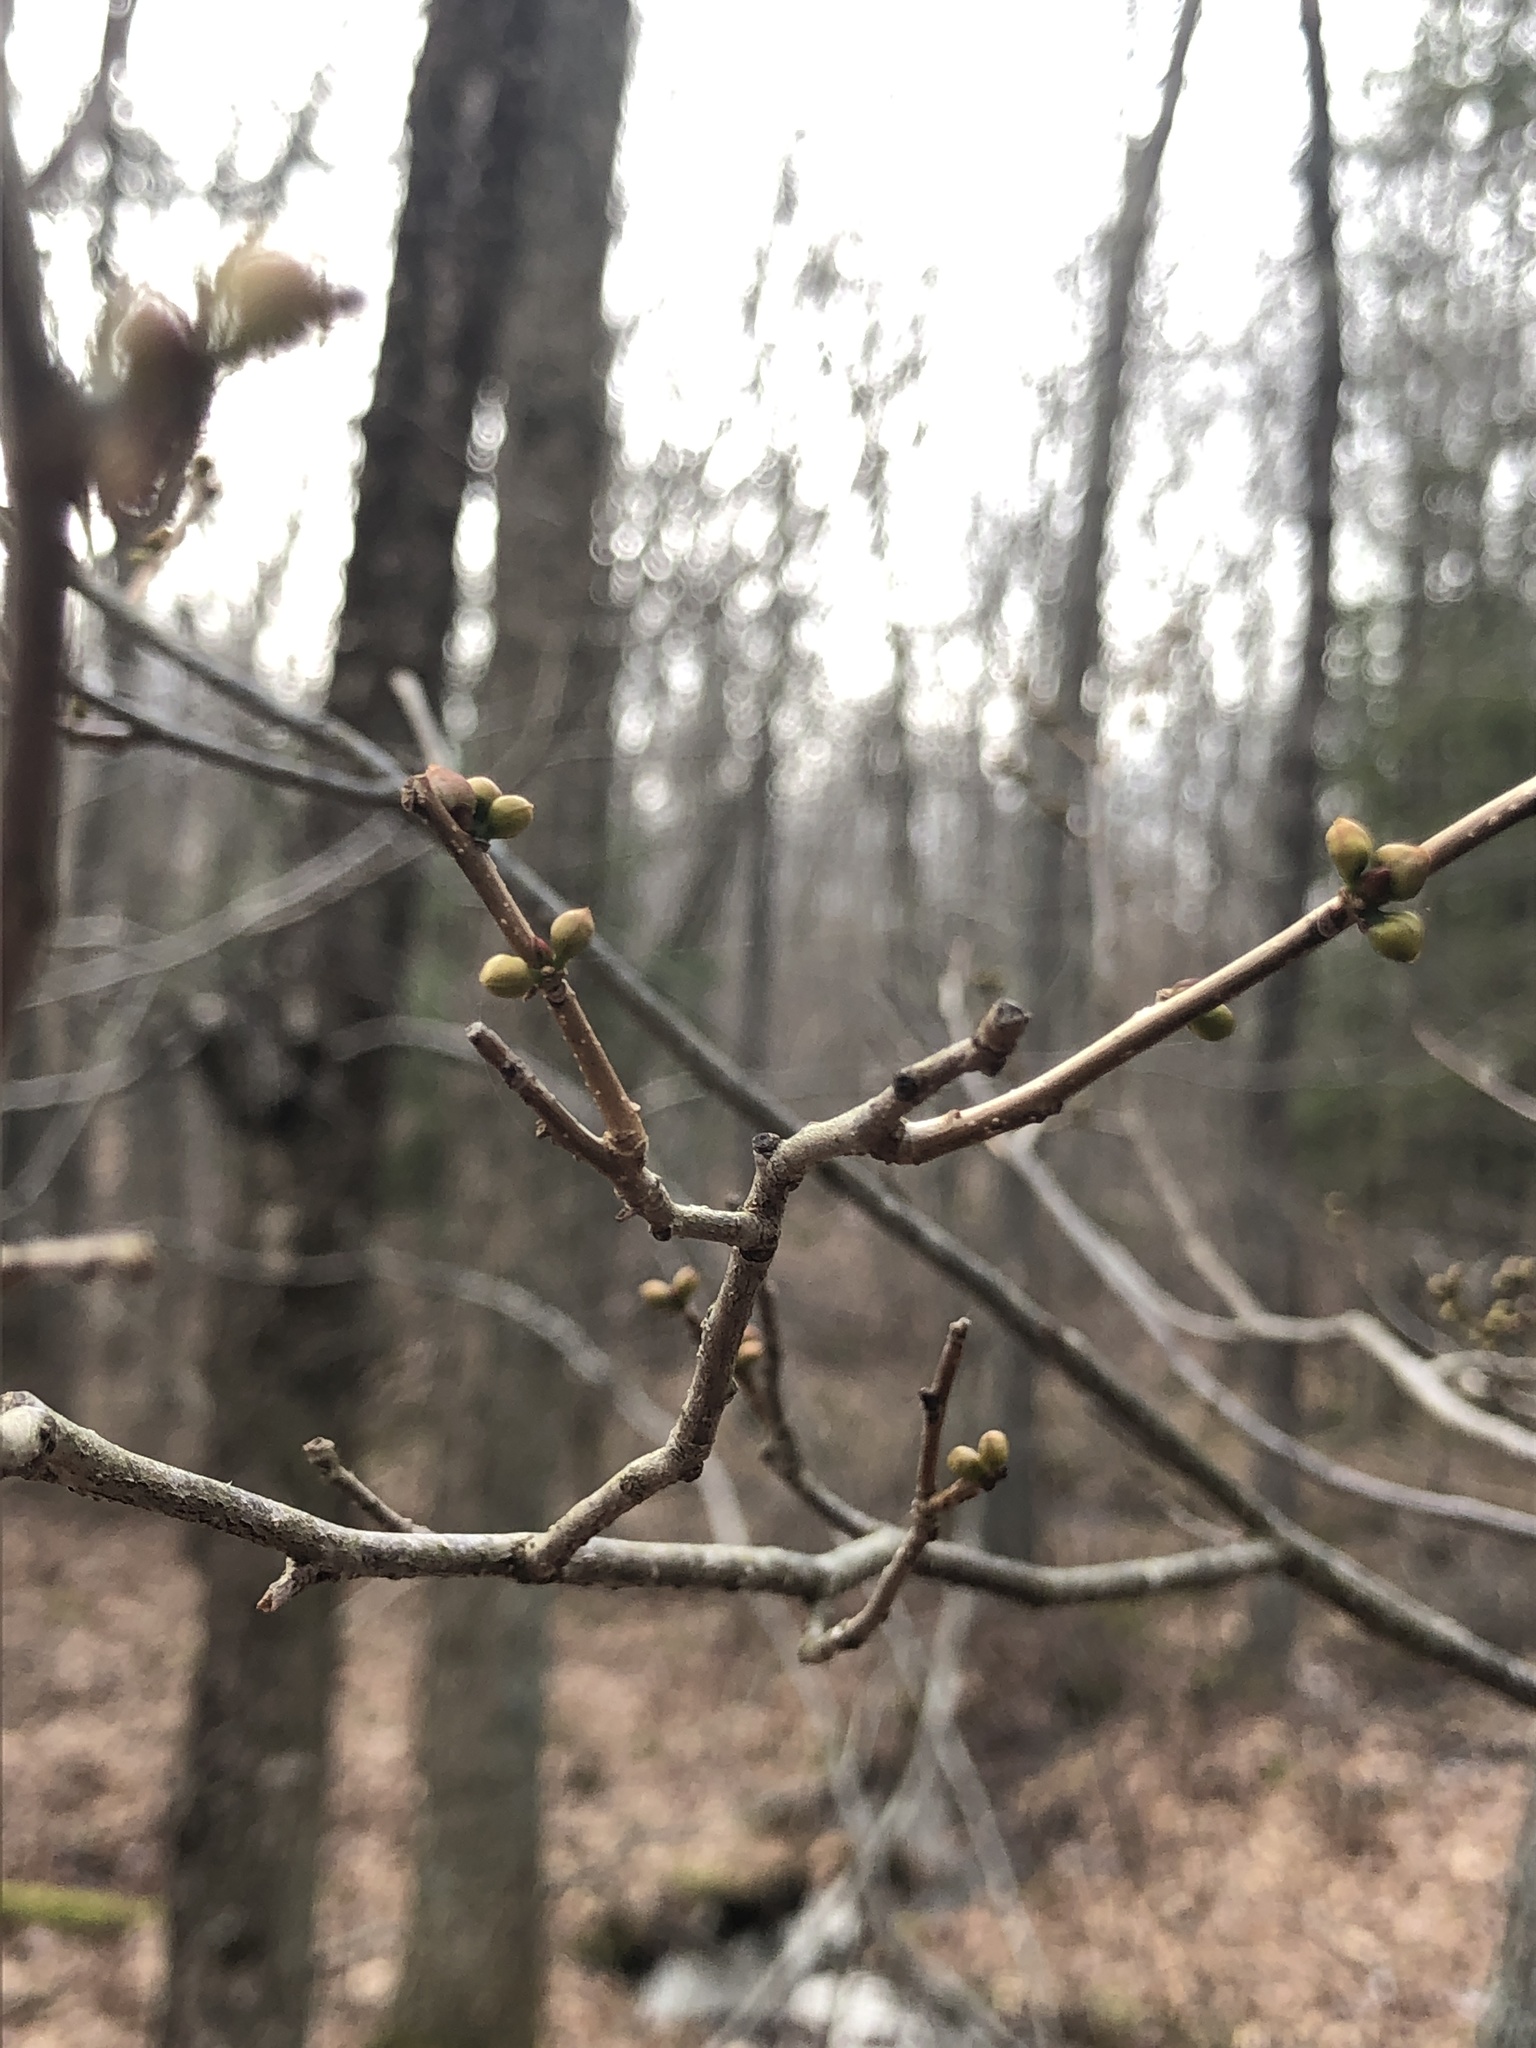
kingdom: Plantae
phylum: Tracheophyta
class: Magnoliopsida
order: Laurales
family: Lauraceae
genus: Lindera
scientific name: Lindera benzoin
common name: Spicebush
